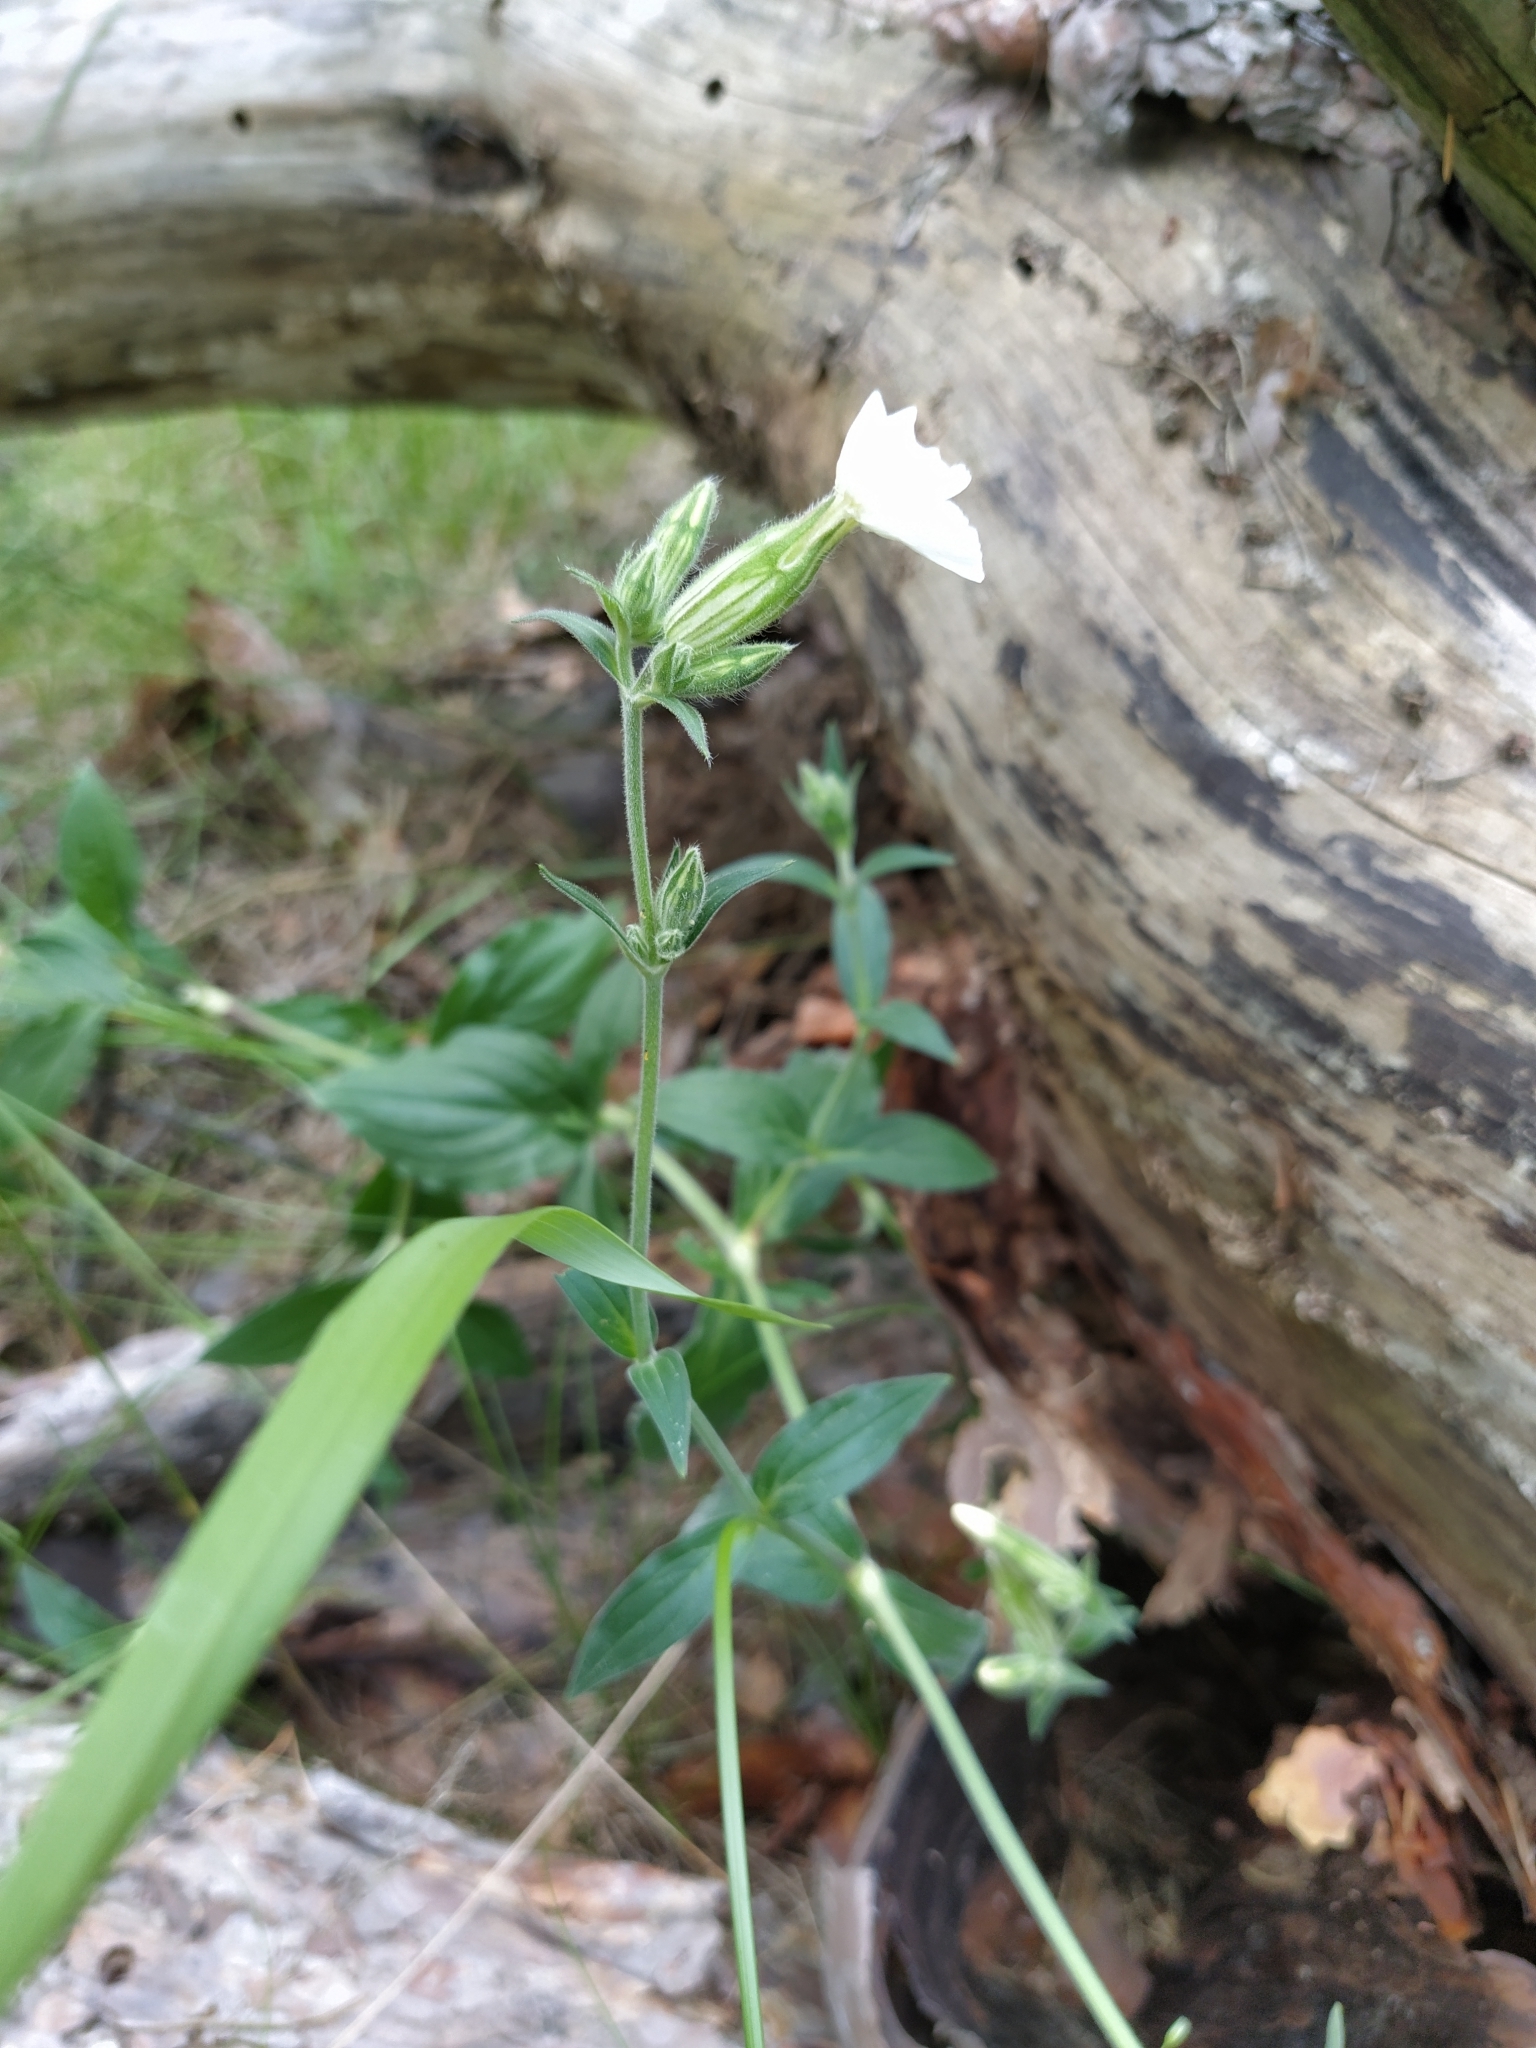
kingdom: Plantae
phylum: Tracheophyta
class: Magnoliopsida
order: Caryophyllales
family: Caryophyllaceae
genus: Silene
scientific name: Silene latifolia
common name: White campion
